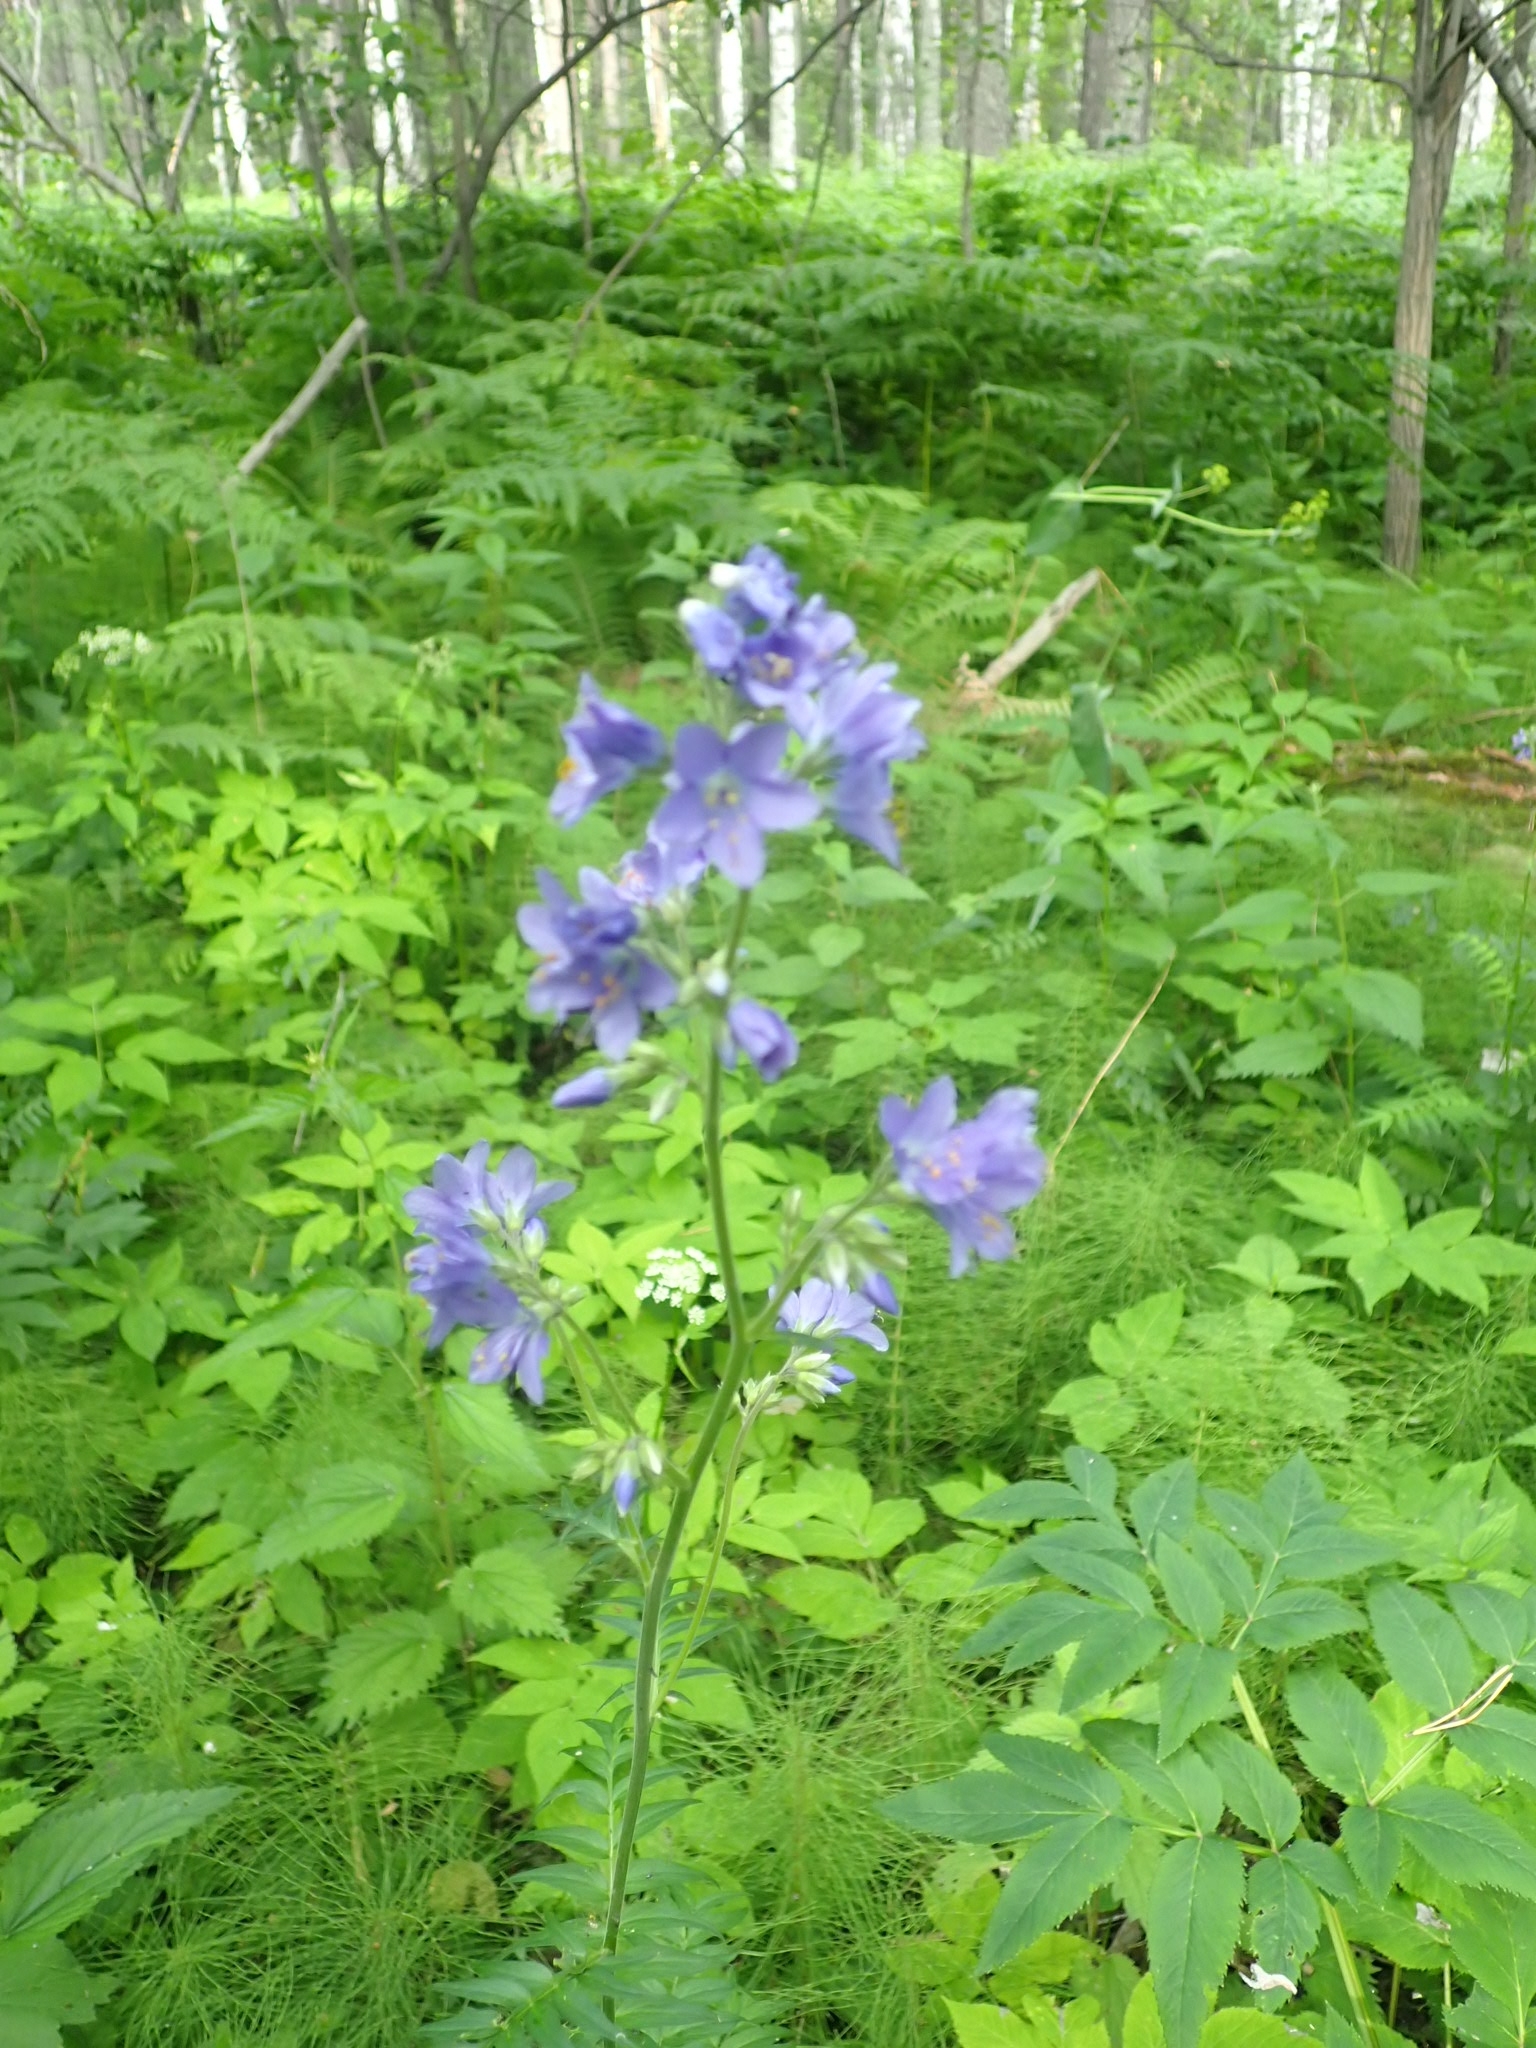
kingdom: Plantae
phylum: Tracheophyta
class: Magnoliopsida
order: Ericales
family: Polemoniaceae
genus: Polemonium
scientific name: Polemonium caeruleum
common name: Jacob's-ladder
